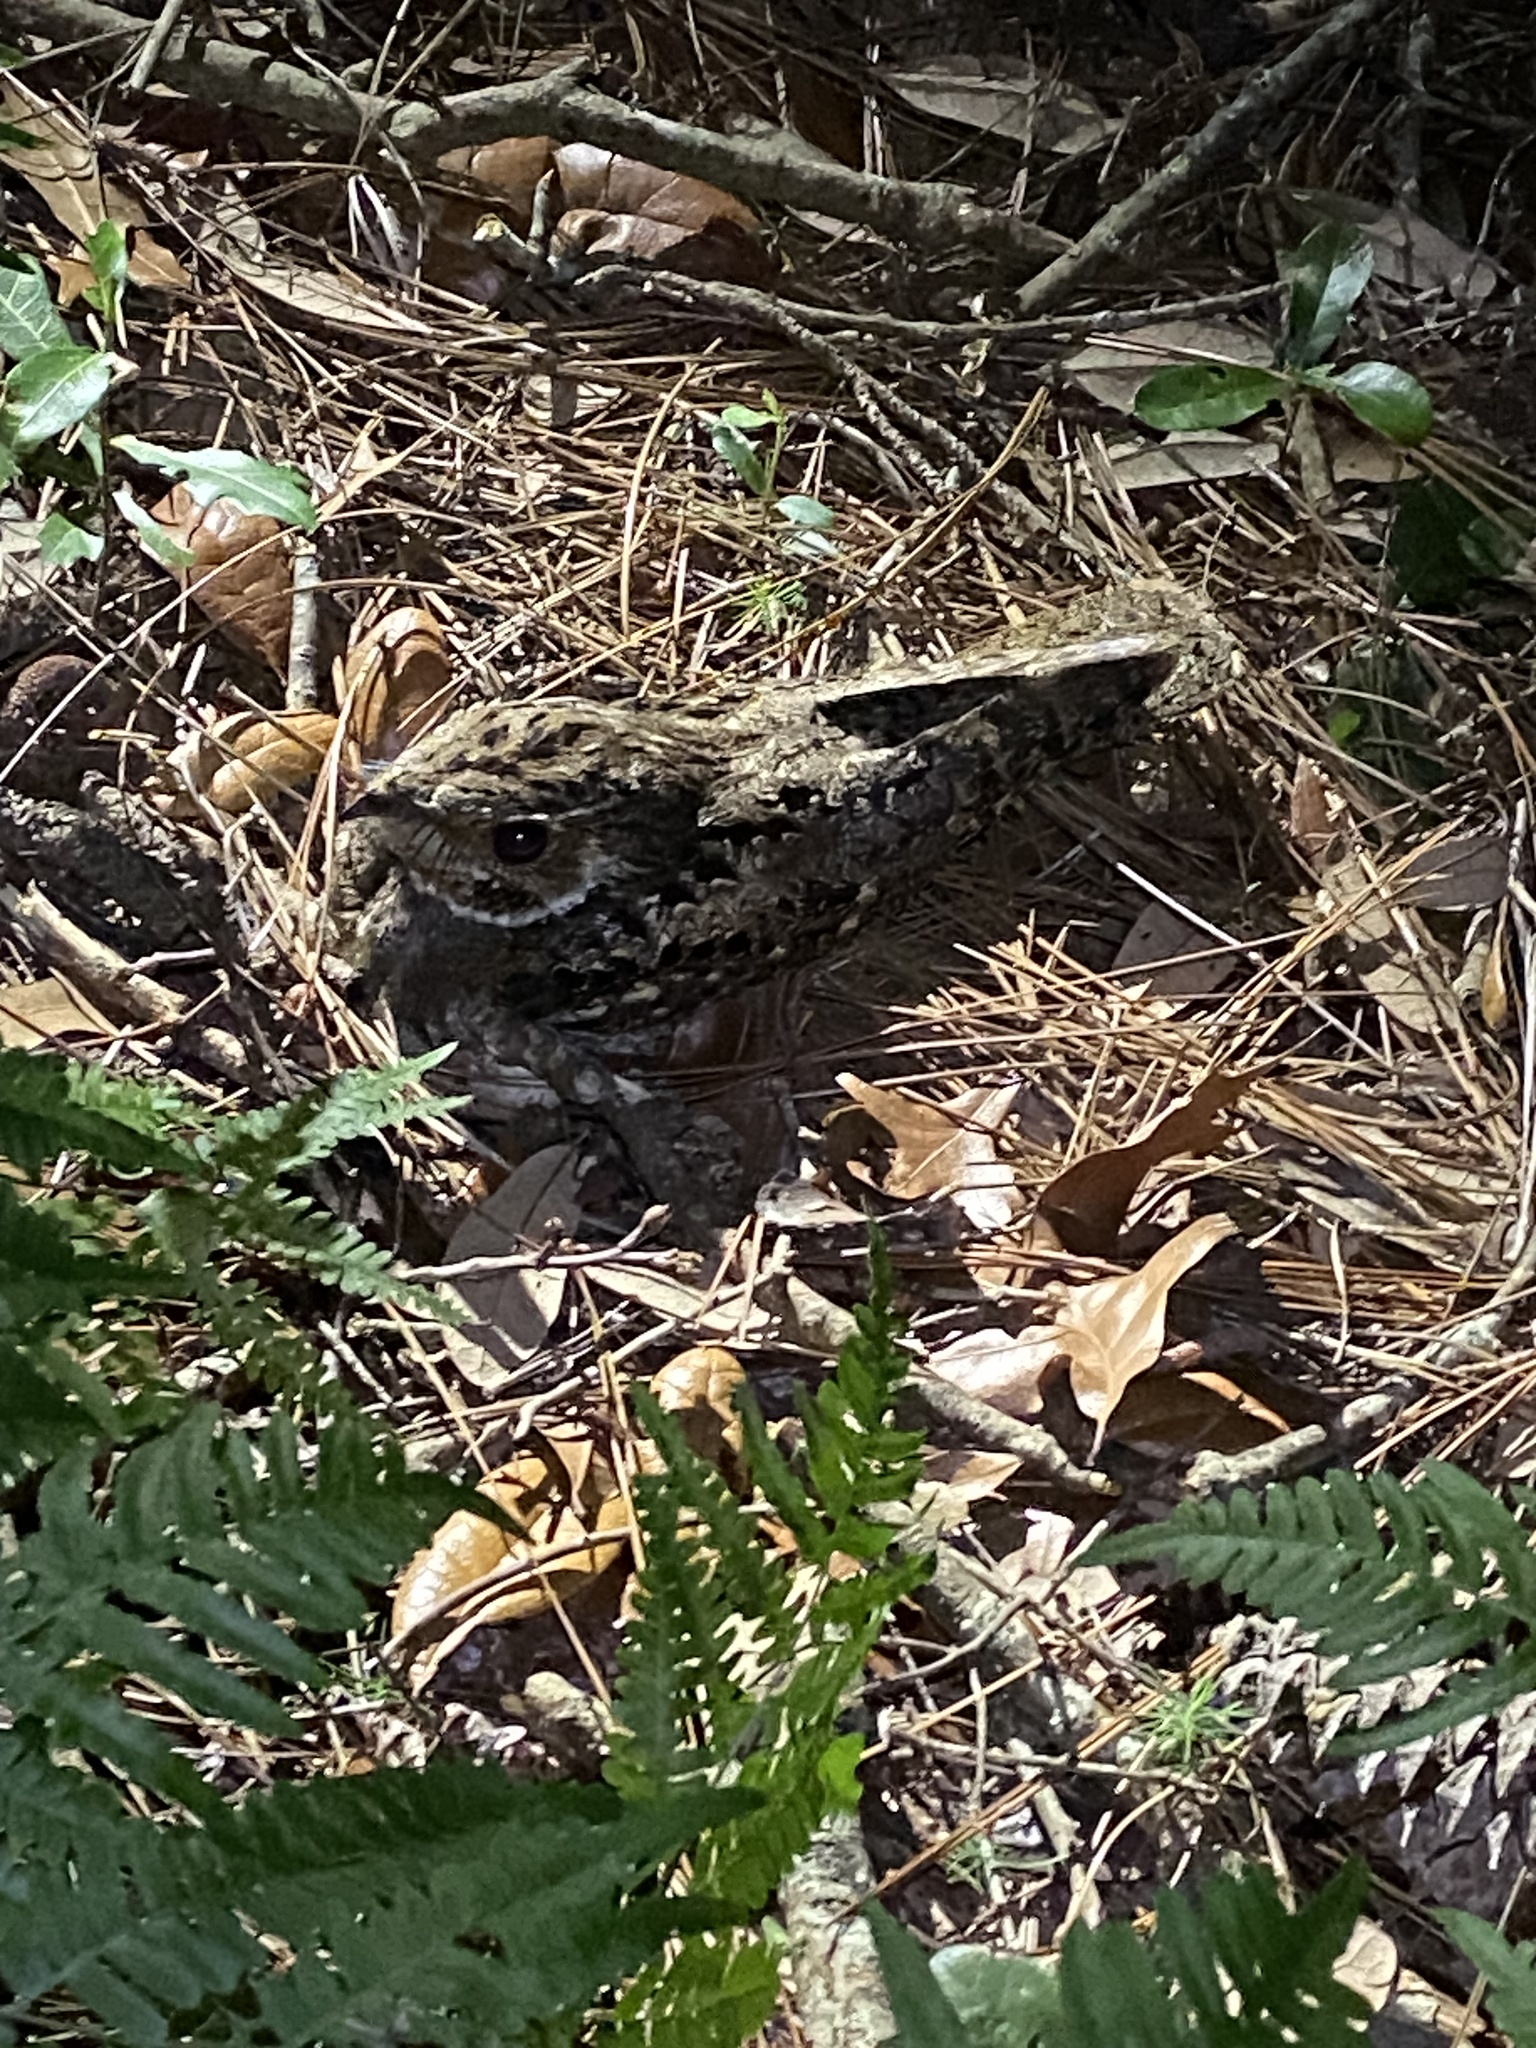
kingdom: Animalia
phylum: Chordata
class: Aves
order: Caprimulgiformes
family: Caprimulgidae
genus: Antrostomus
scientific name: Antrostomus carolinensis
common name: Chuck-will's-widow
